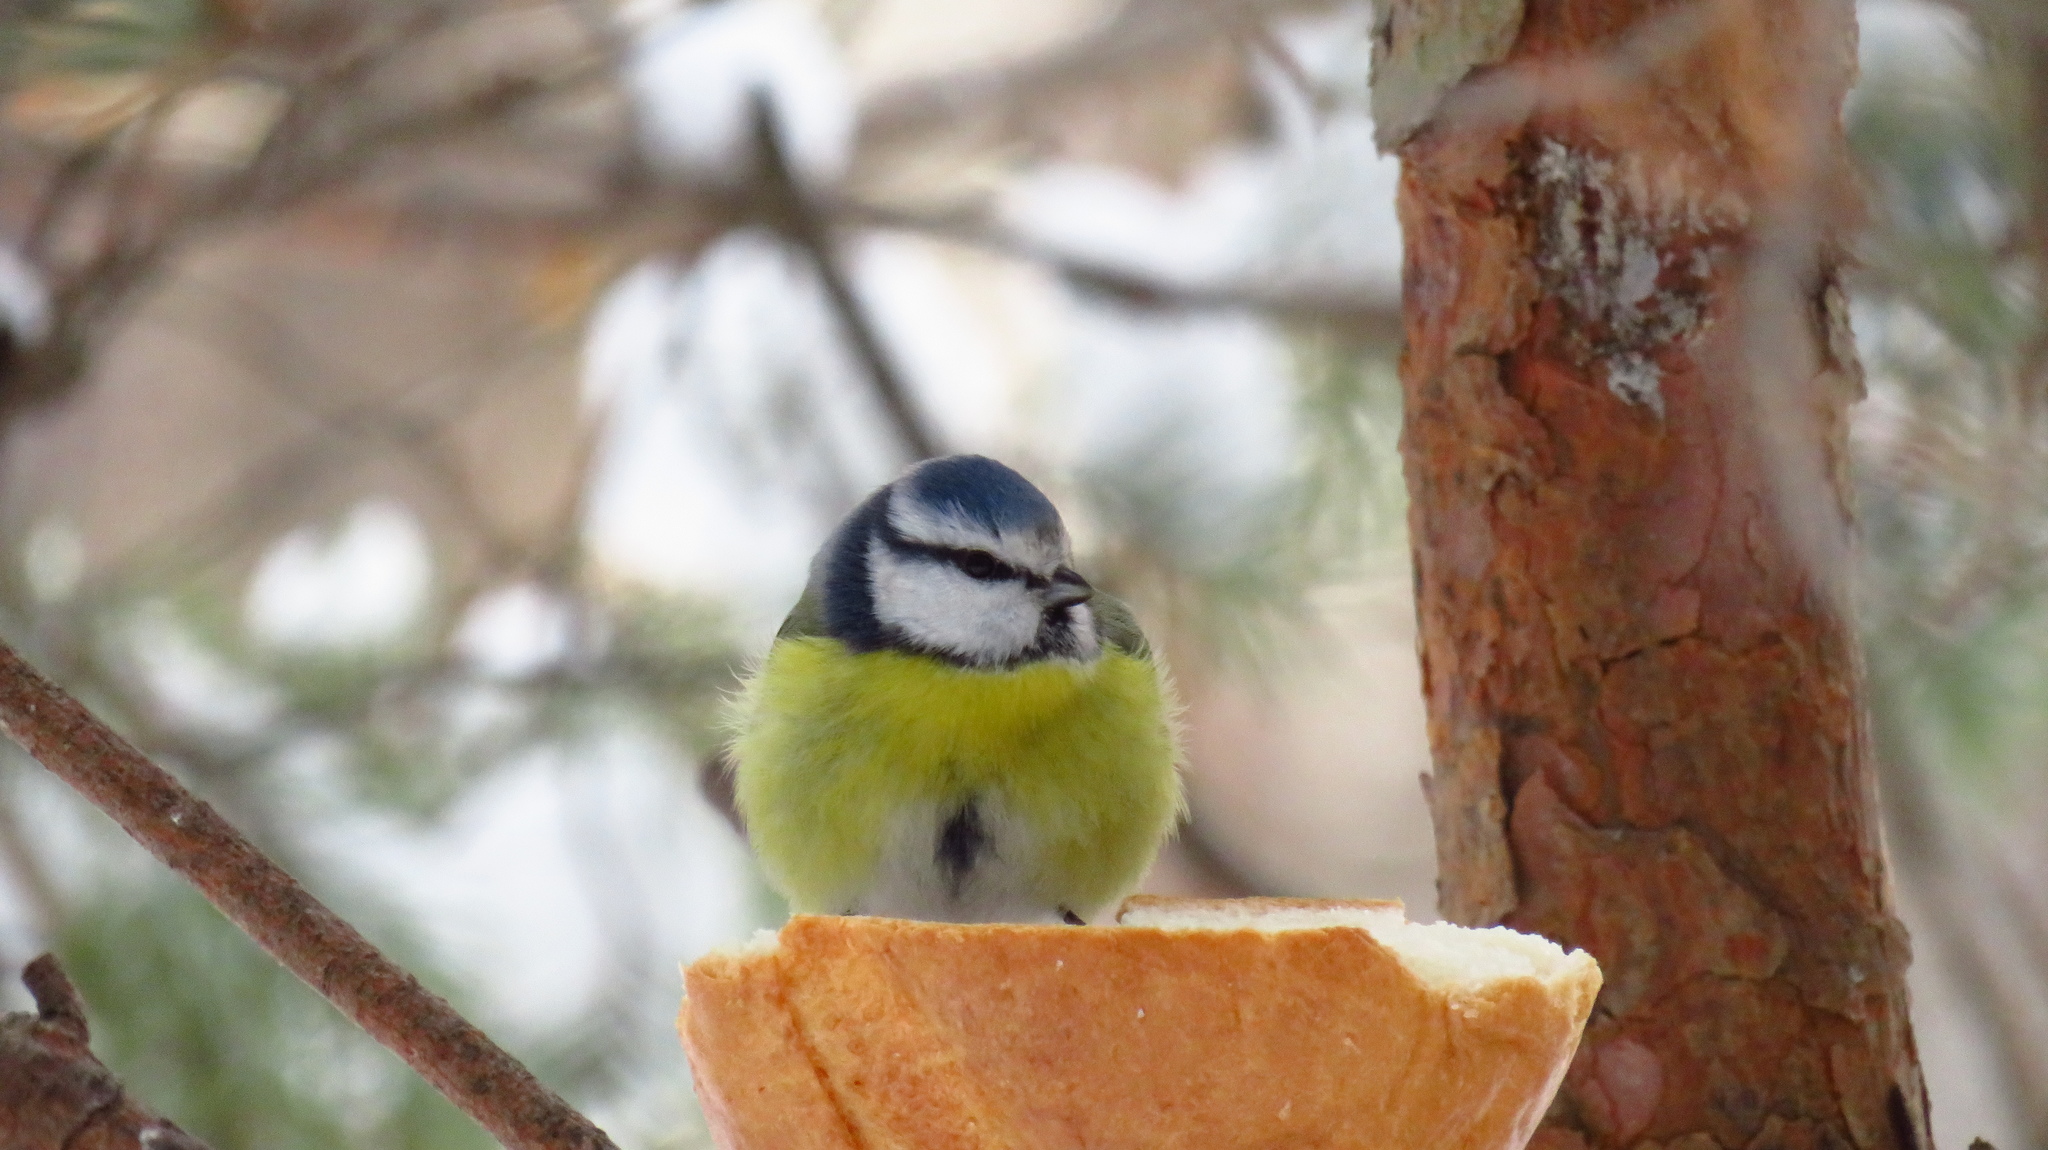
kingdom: Animalia
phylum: Chordata
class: Aves
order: Passeriformes
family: Paridae
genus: Cyanistes
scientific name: Cyanistes caeruleus
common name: Eurasian blue tit
